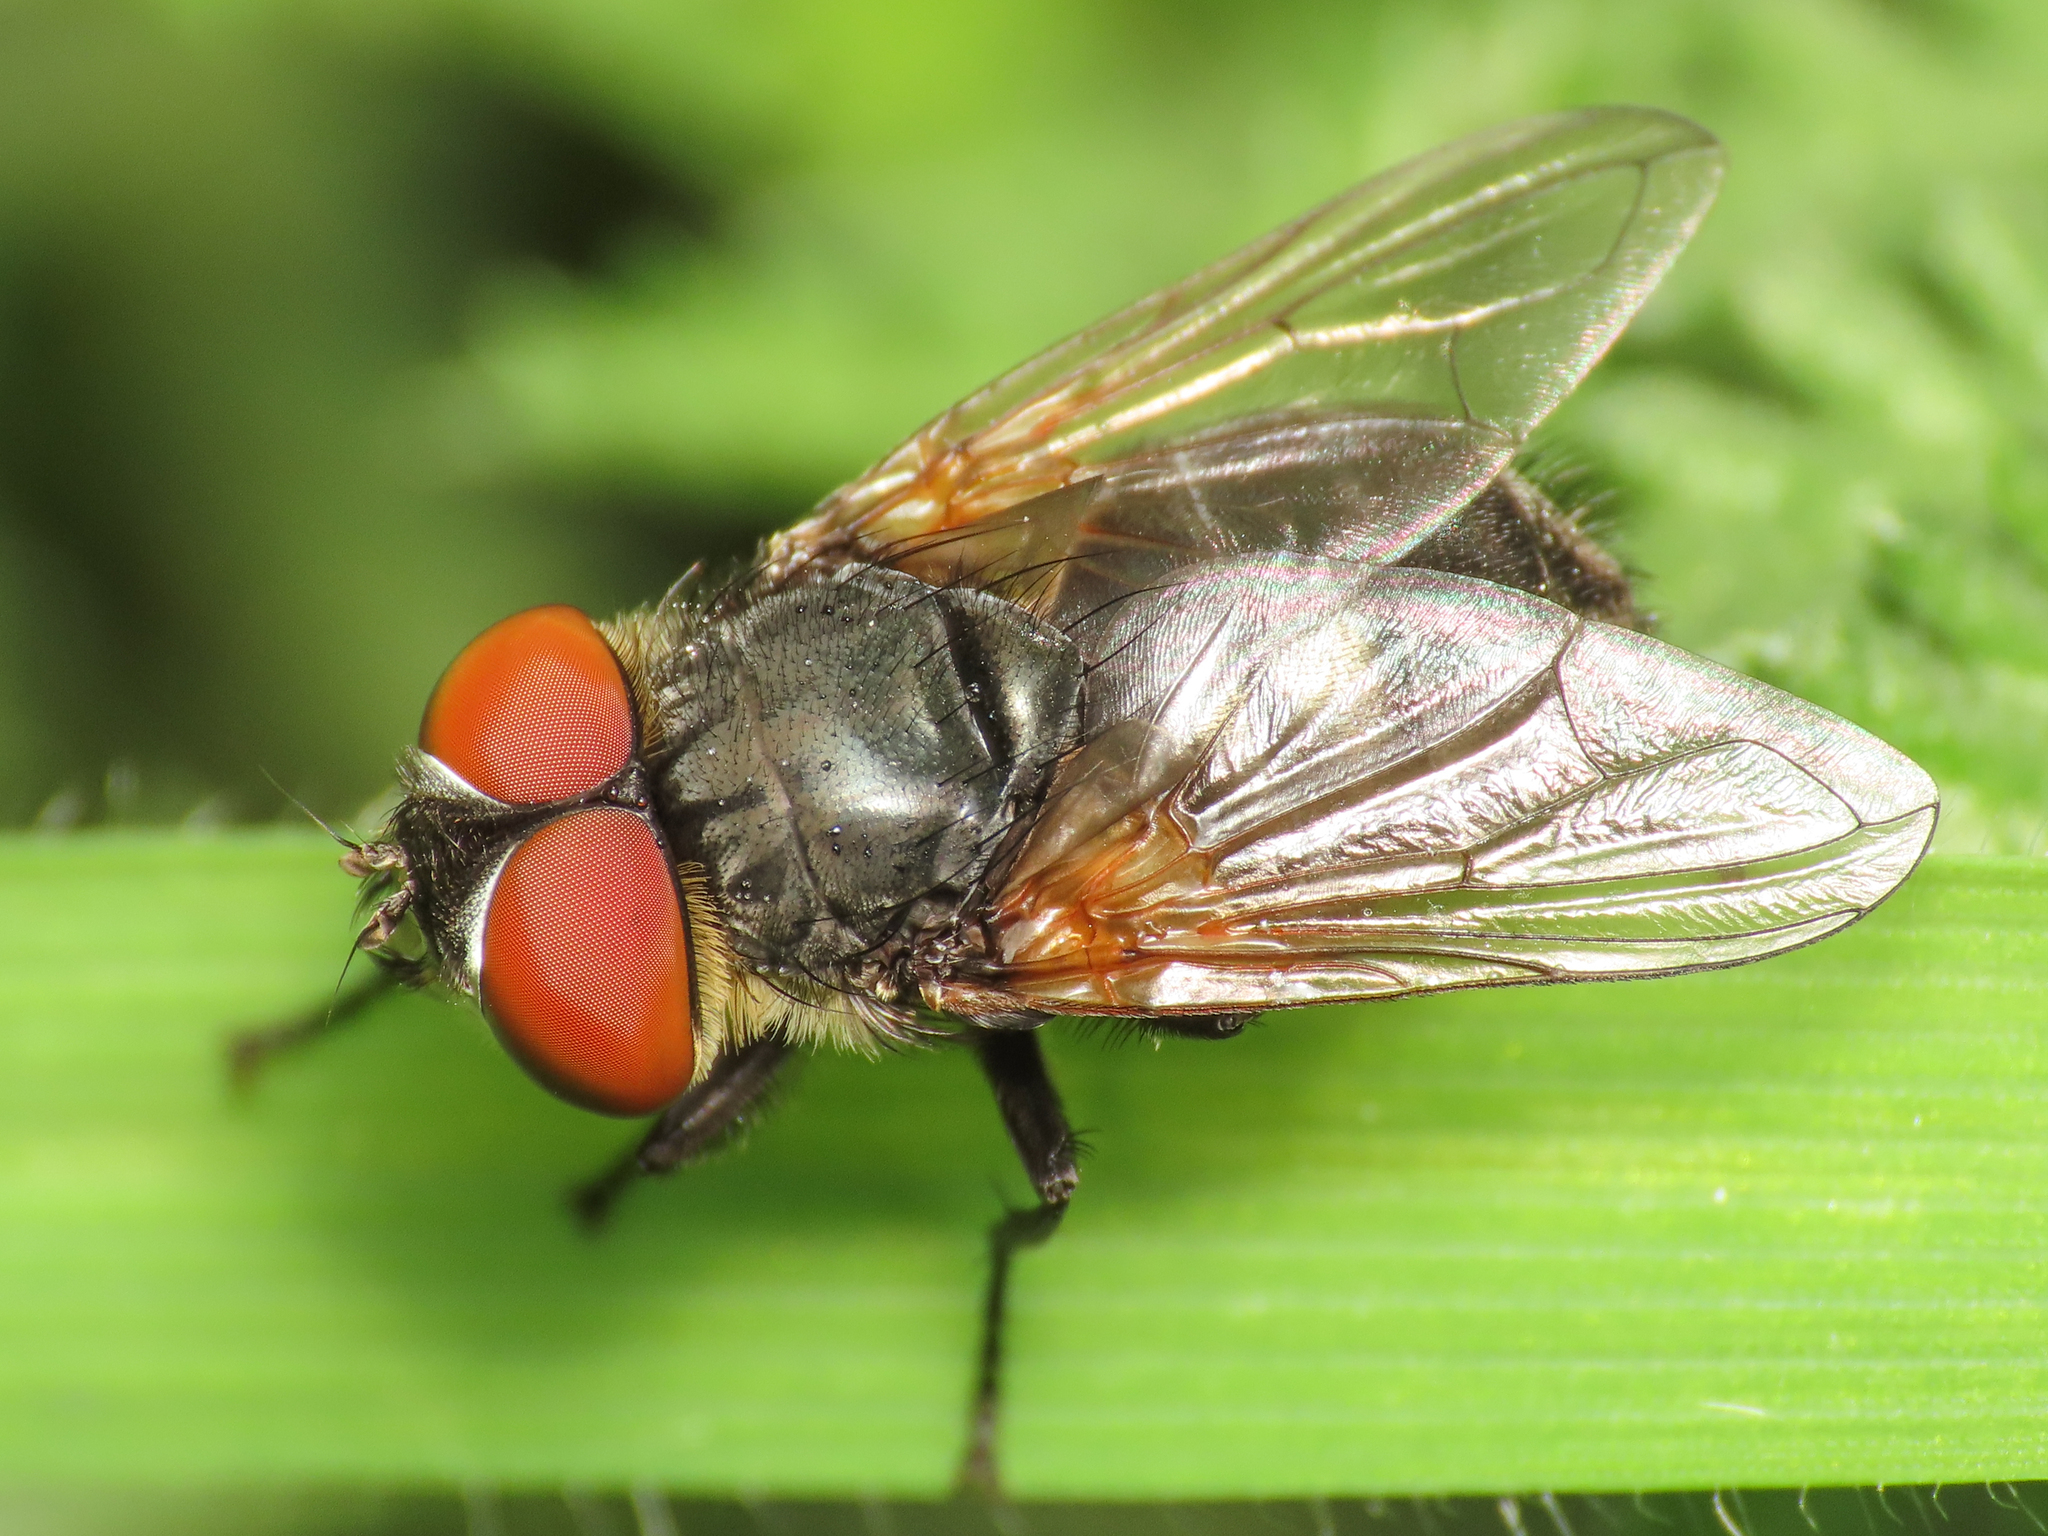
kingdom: Animalia
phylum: Arthropoda
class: Insecta
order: Diptera
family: Tachinidae
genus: Phasia
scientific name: Phasia aurigera
